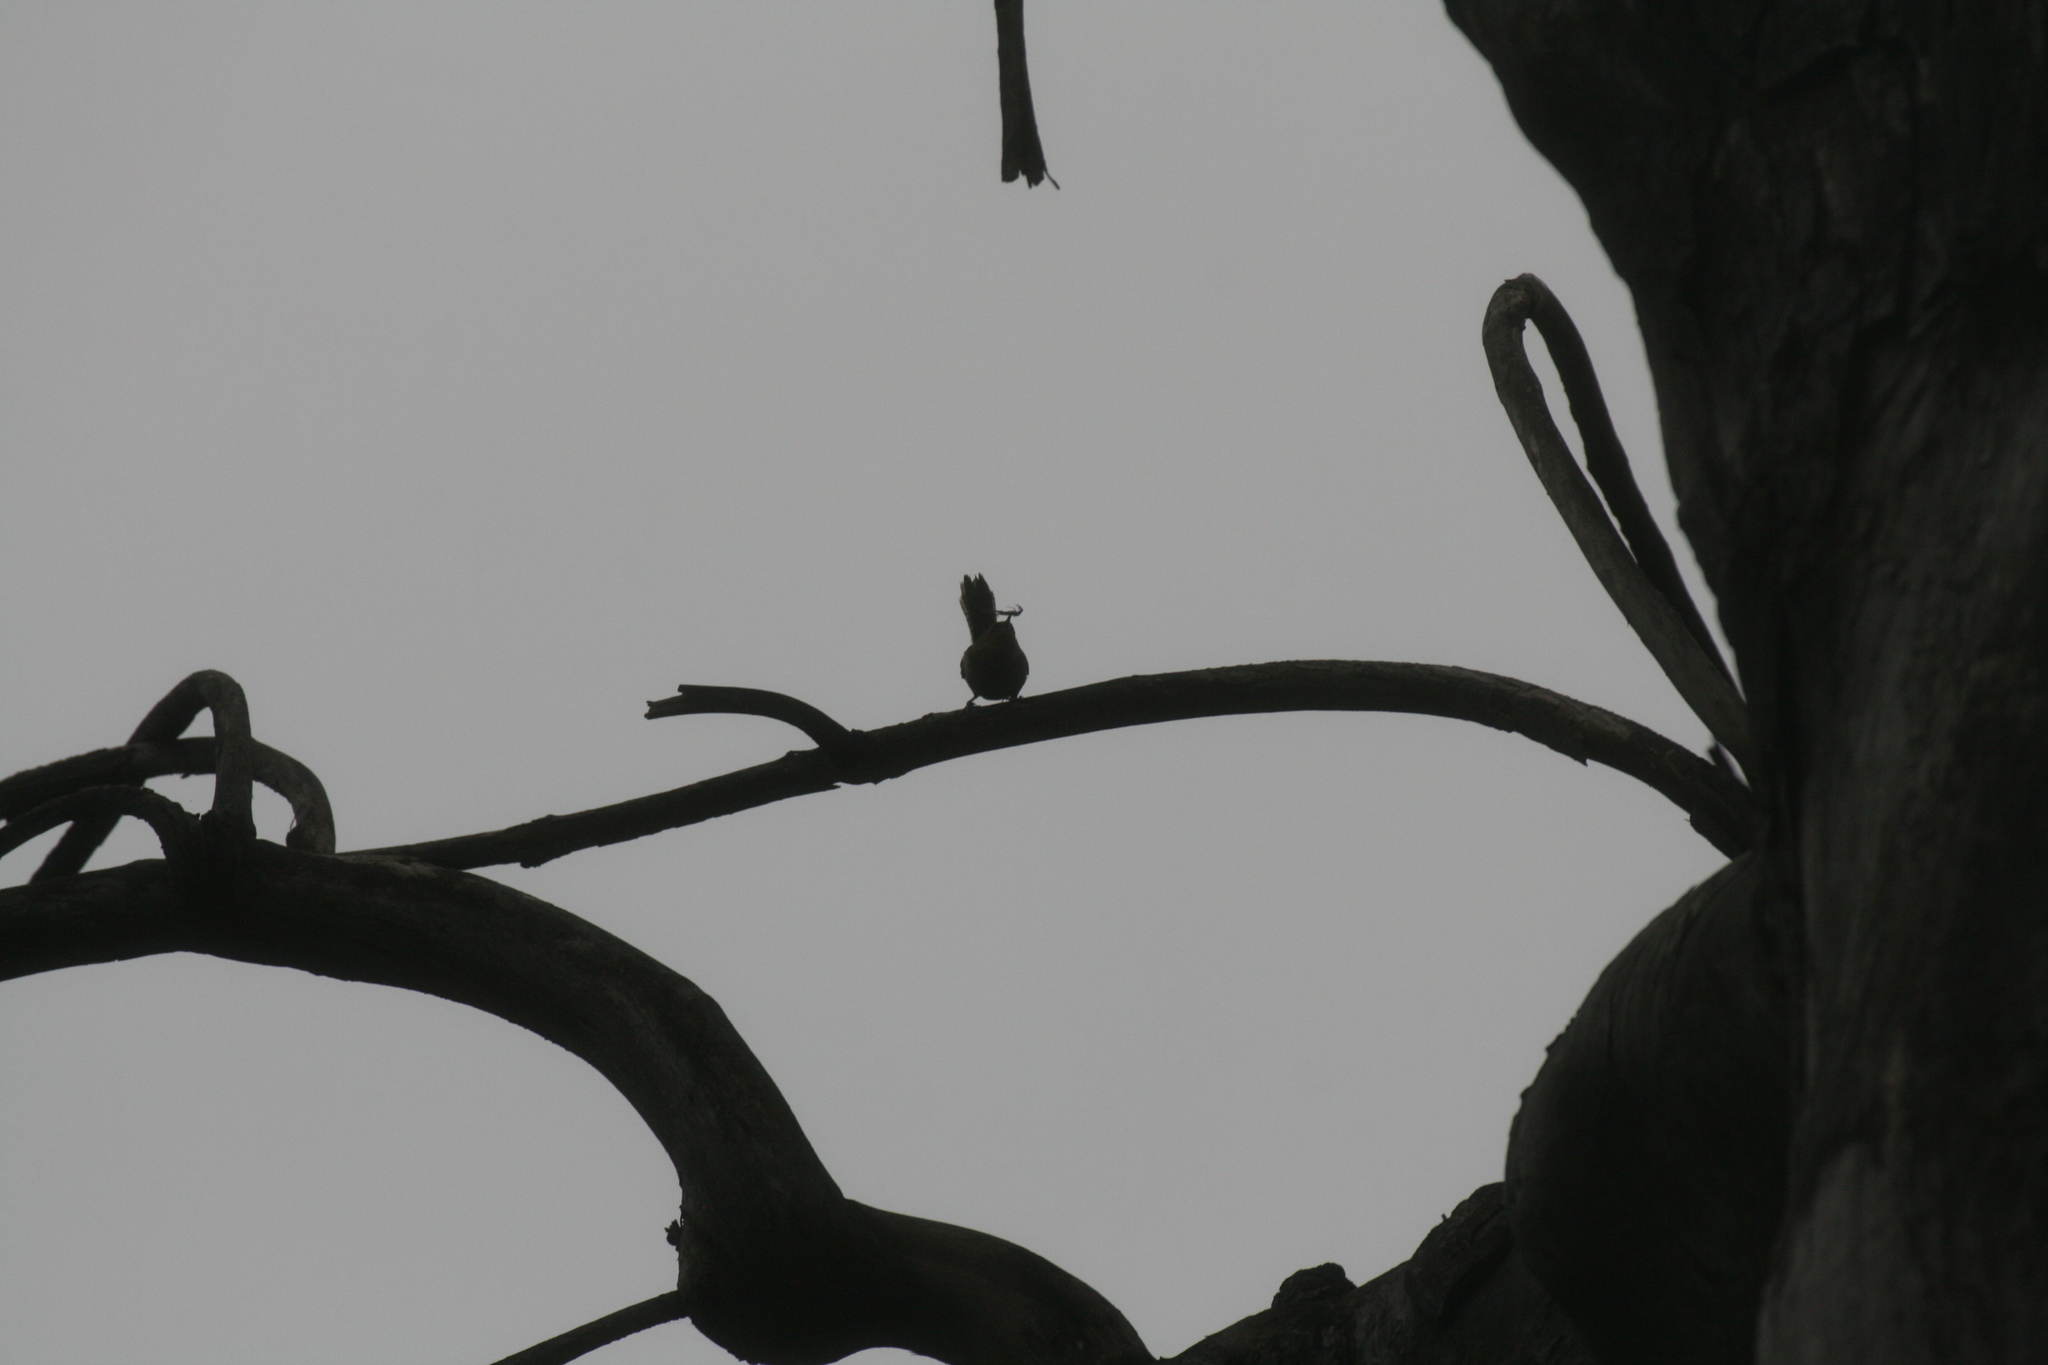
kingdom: Animalia
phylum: Chordata
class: Aves
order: Passeriformes
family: Troglodytidae
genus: Troglodytes
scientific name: Troglodytes aedon
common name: House wren
